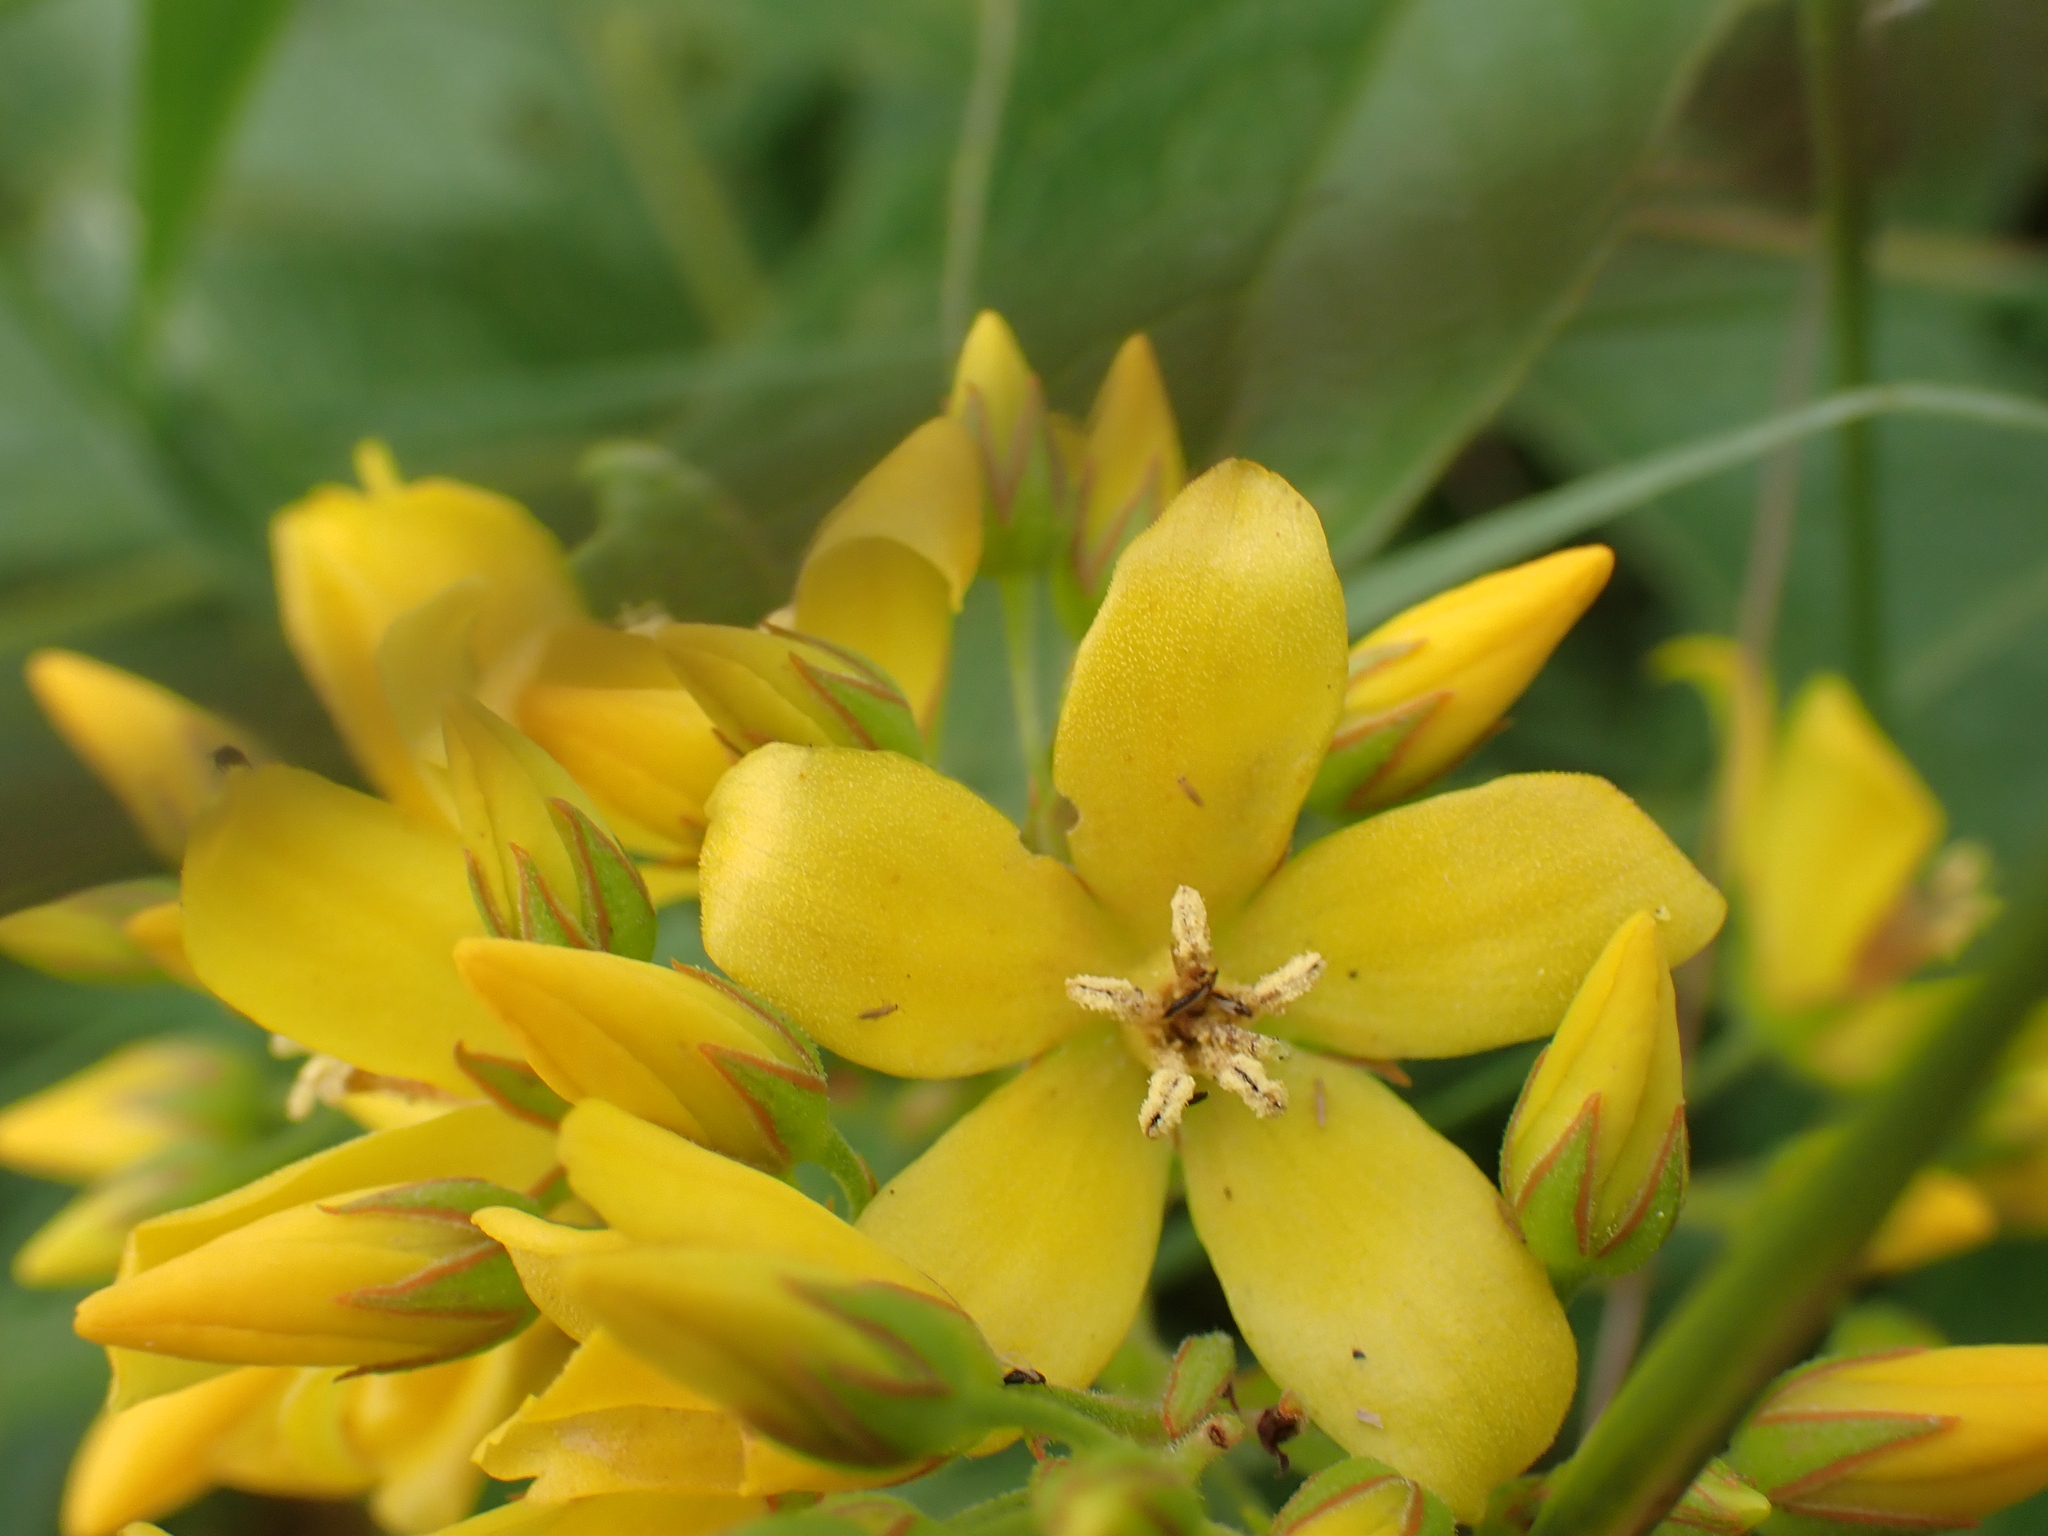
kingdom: Plantae
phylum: Tracheophyta
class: Magnoliopsida
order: Ericales
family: Primulaceae
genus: Lysimachia
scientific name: Lysimachia vulgaris
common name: Yellow loosestrife
